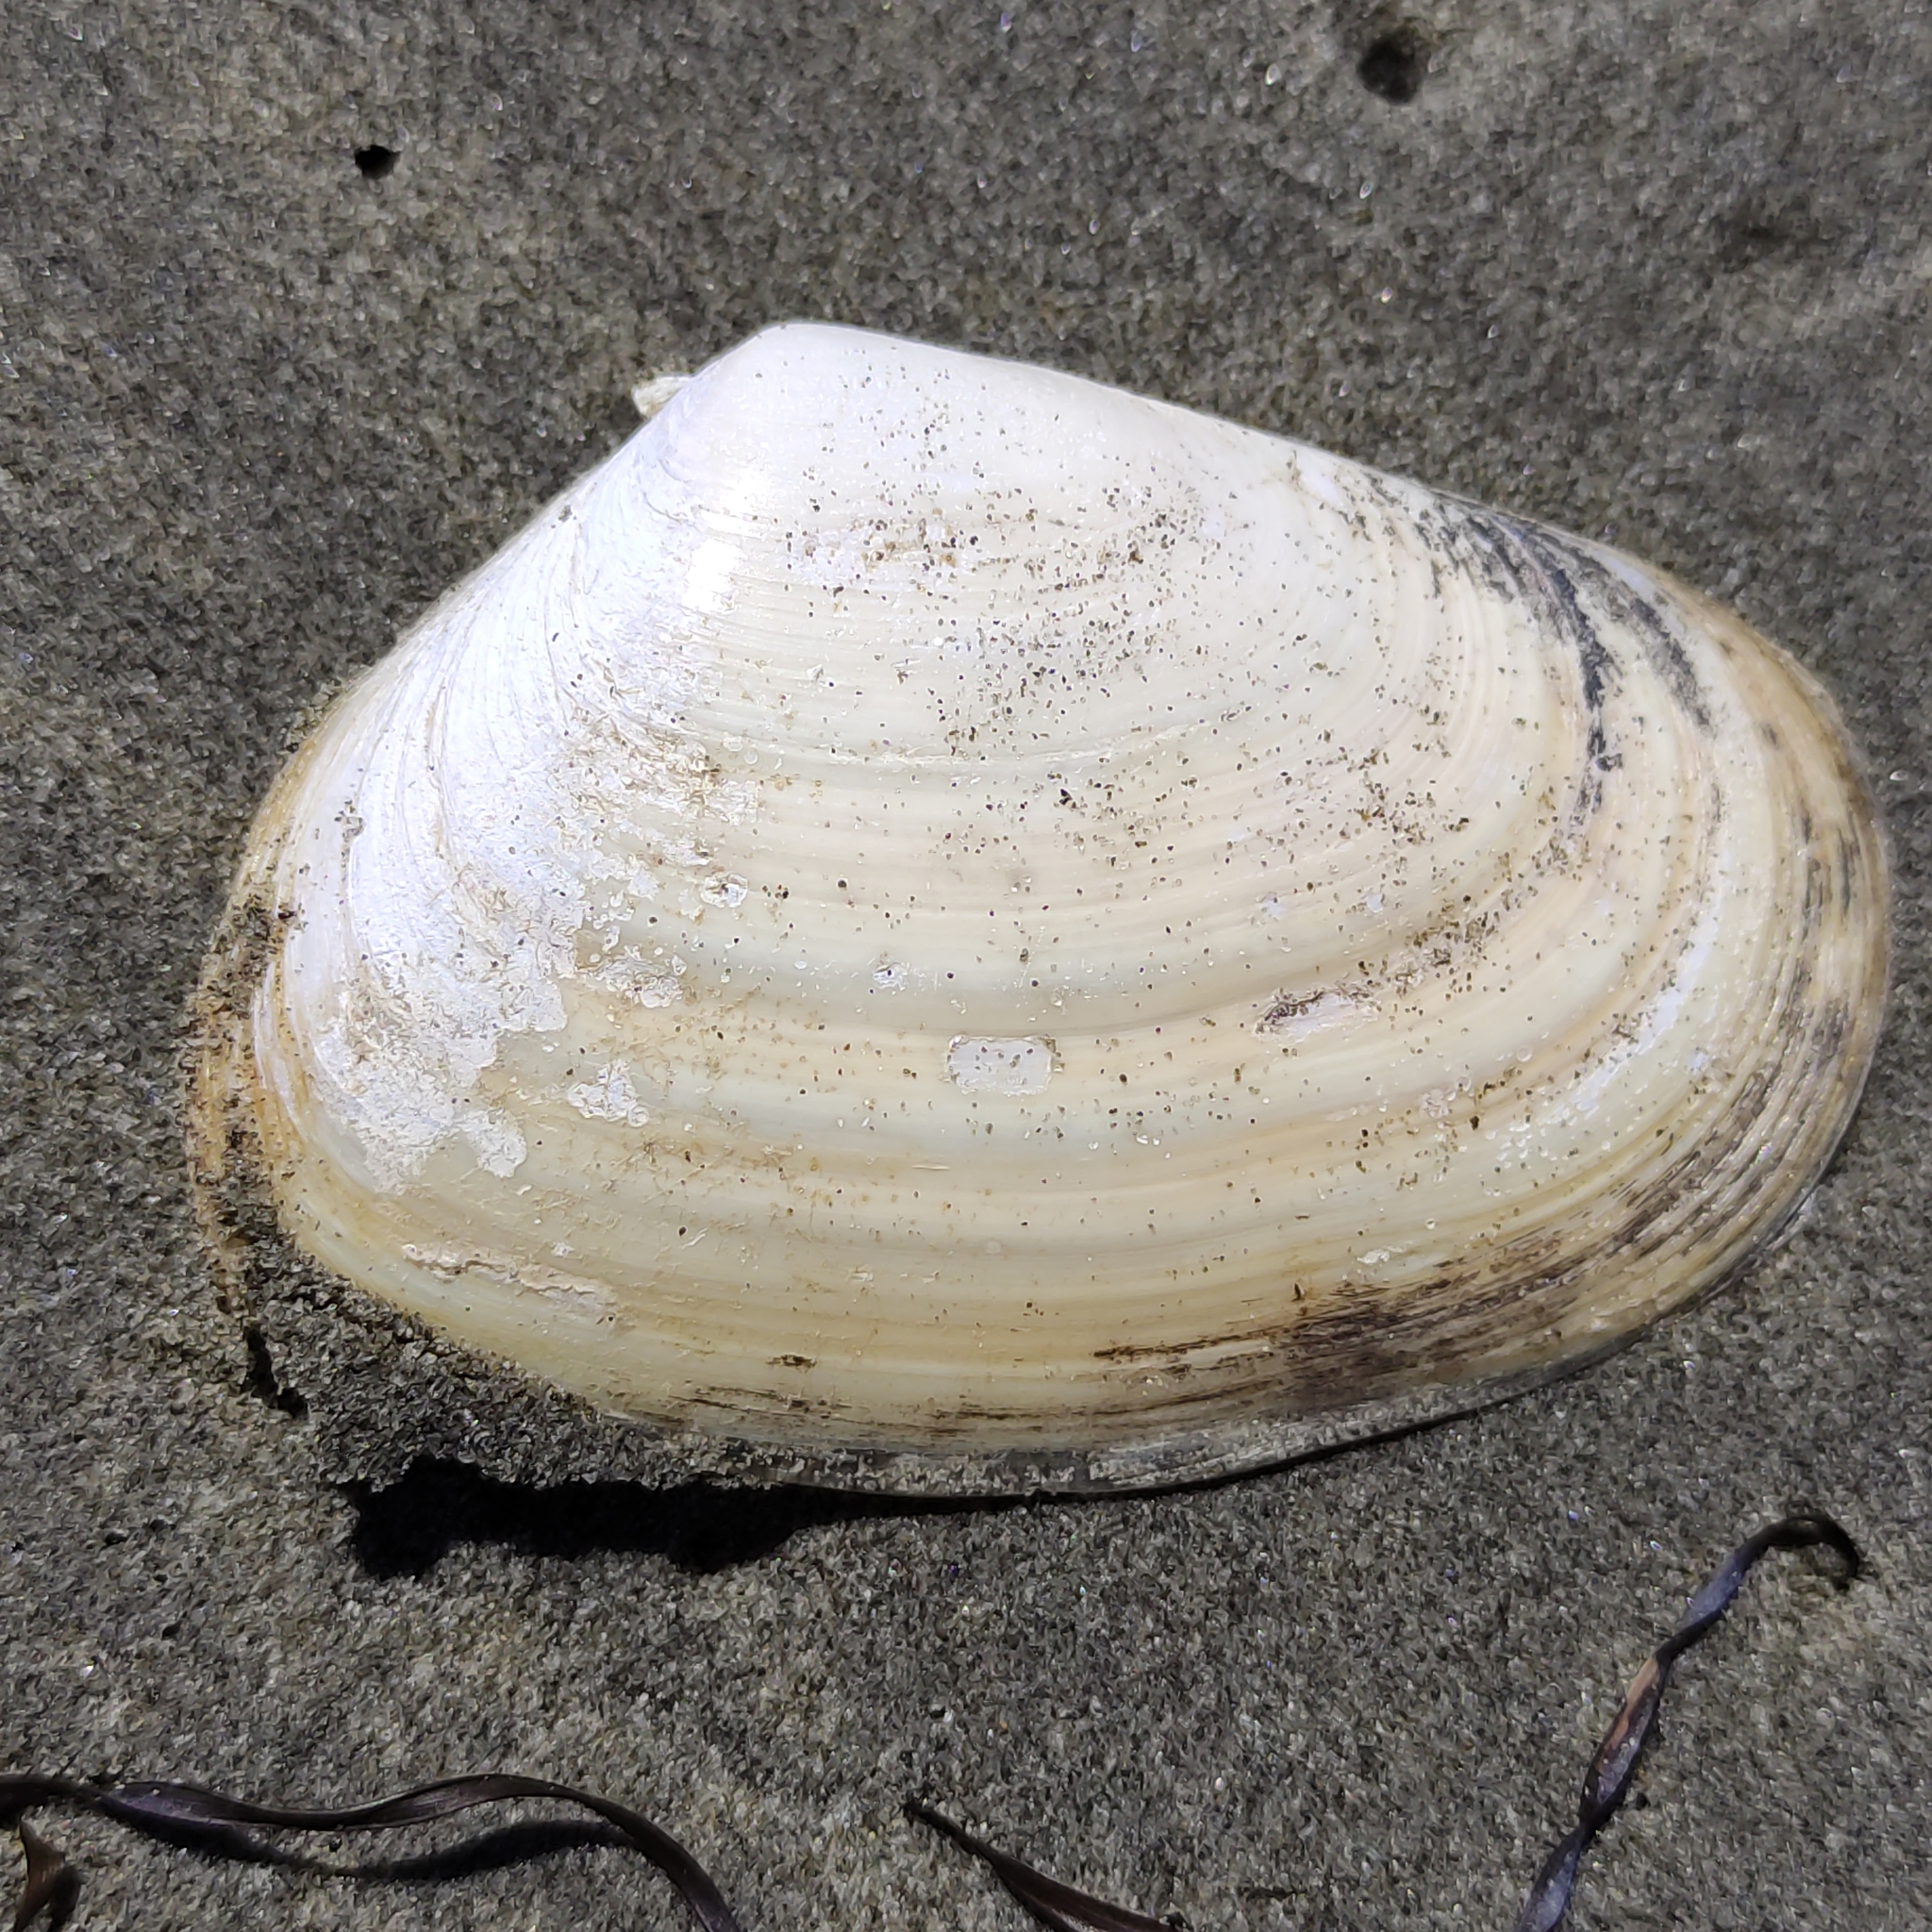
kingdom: Animalia
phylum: Mollusca
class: Bivalvia
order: Venerida
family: Mesodesmatidae
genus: Paphies
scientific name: Paphies donacina
